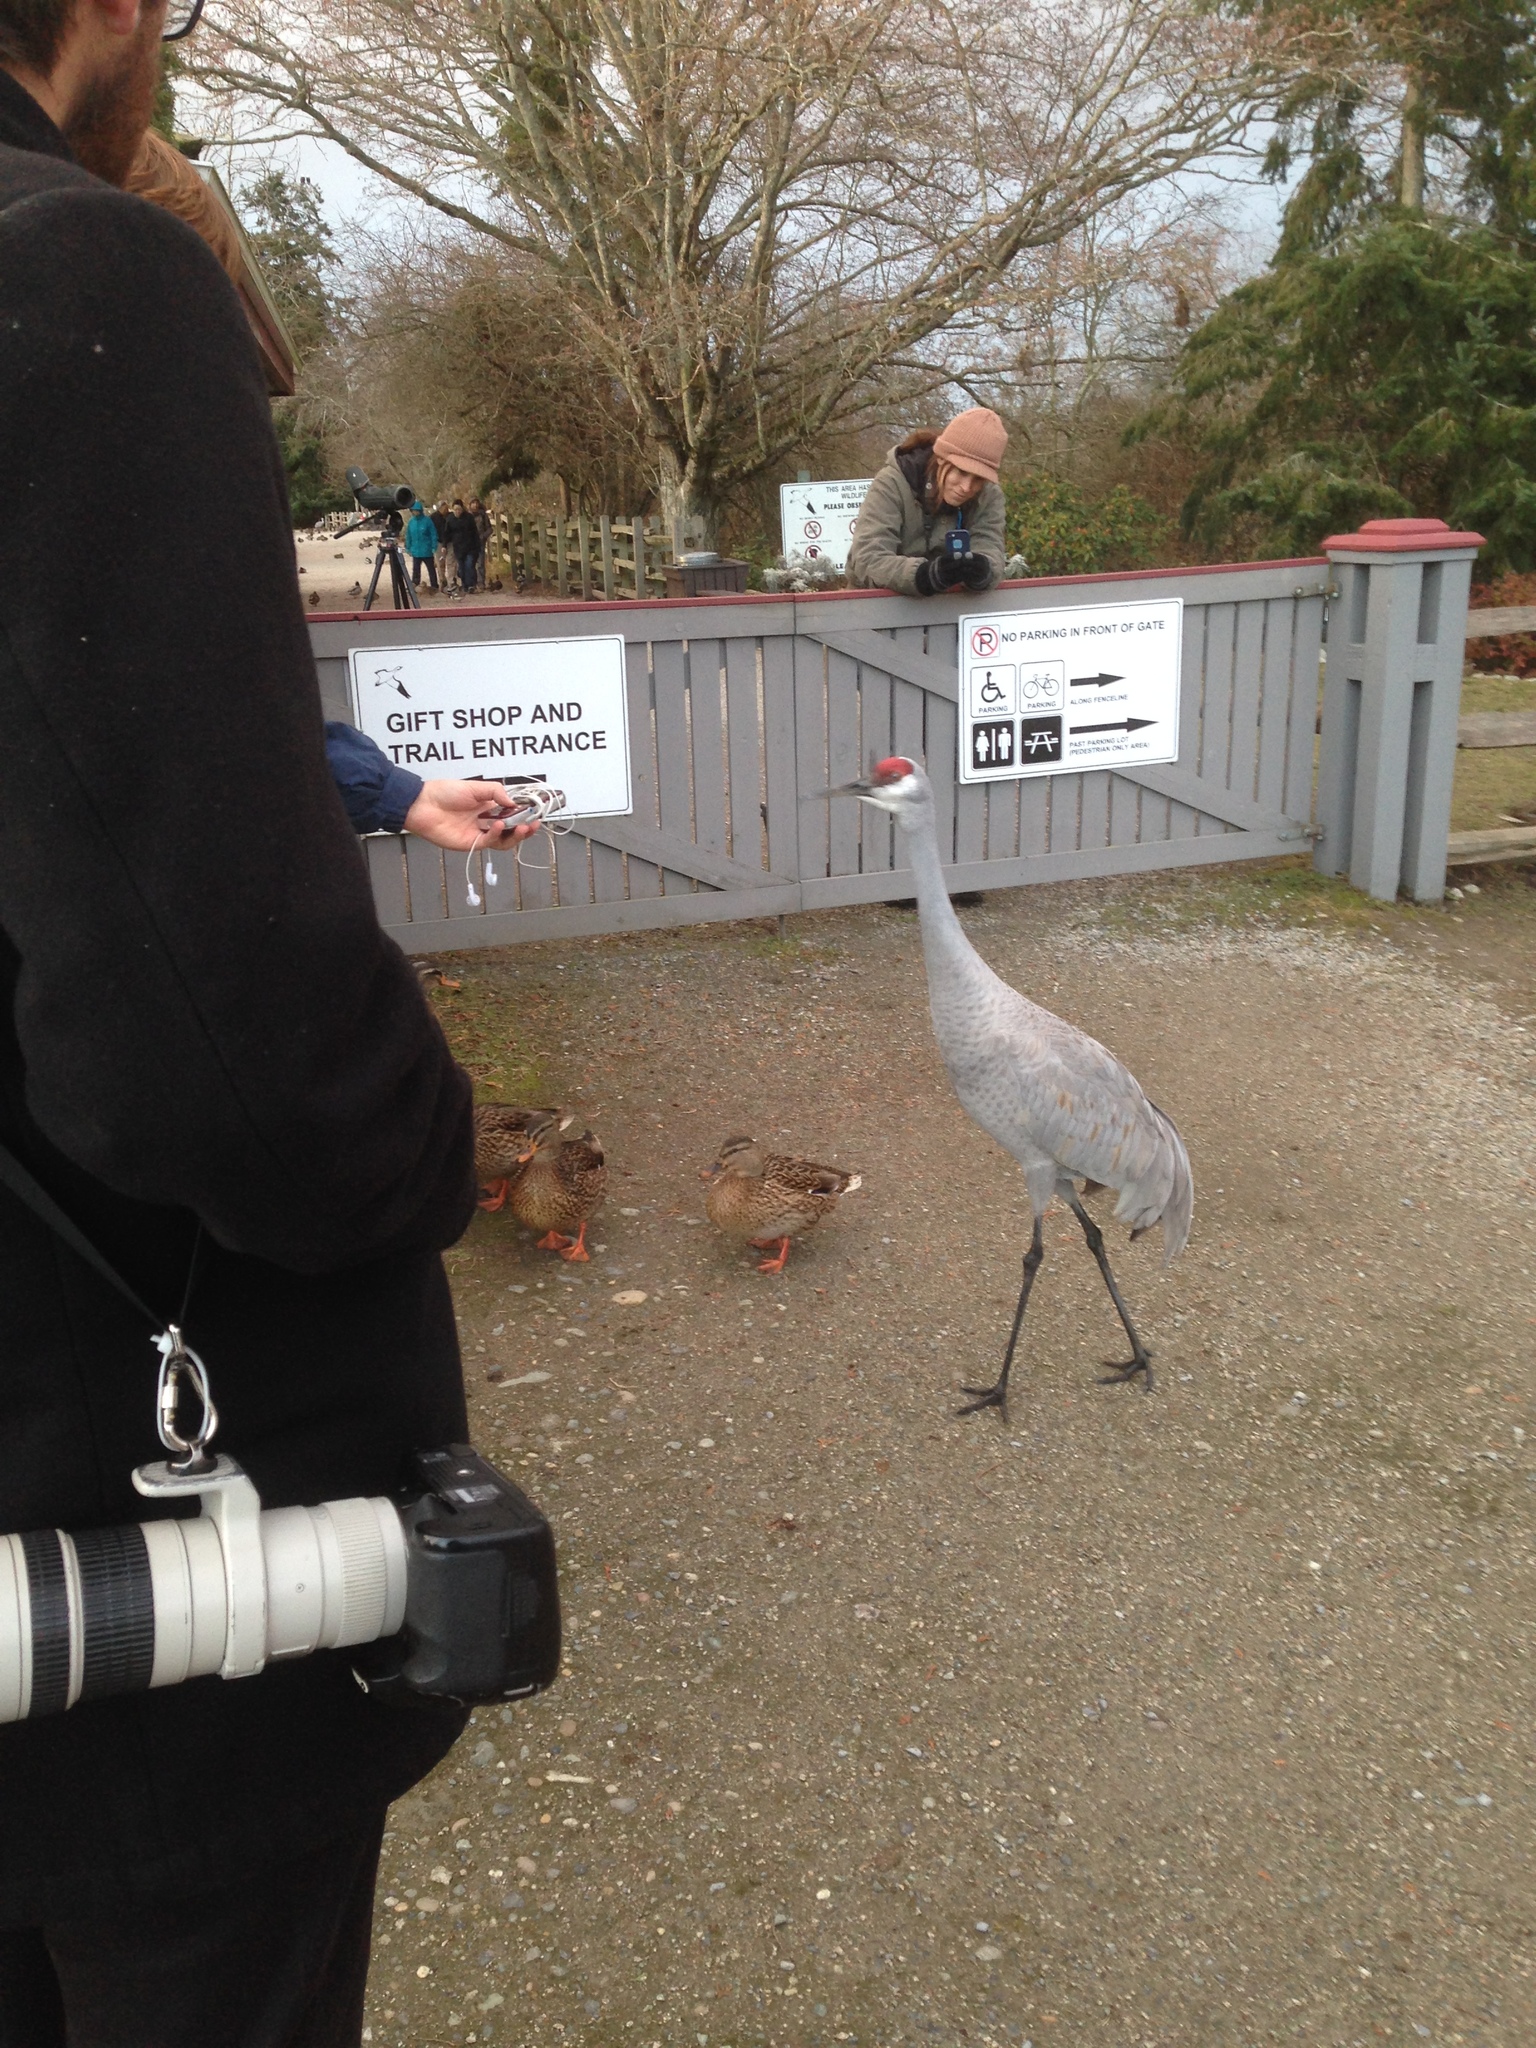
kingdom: Animalia
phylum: Chordata
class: Aves
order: Gruiformes
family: Gruidae
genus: Grus
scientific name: Grus canadensis
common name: Sandhill crane
